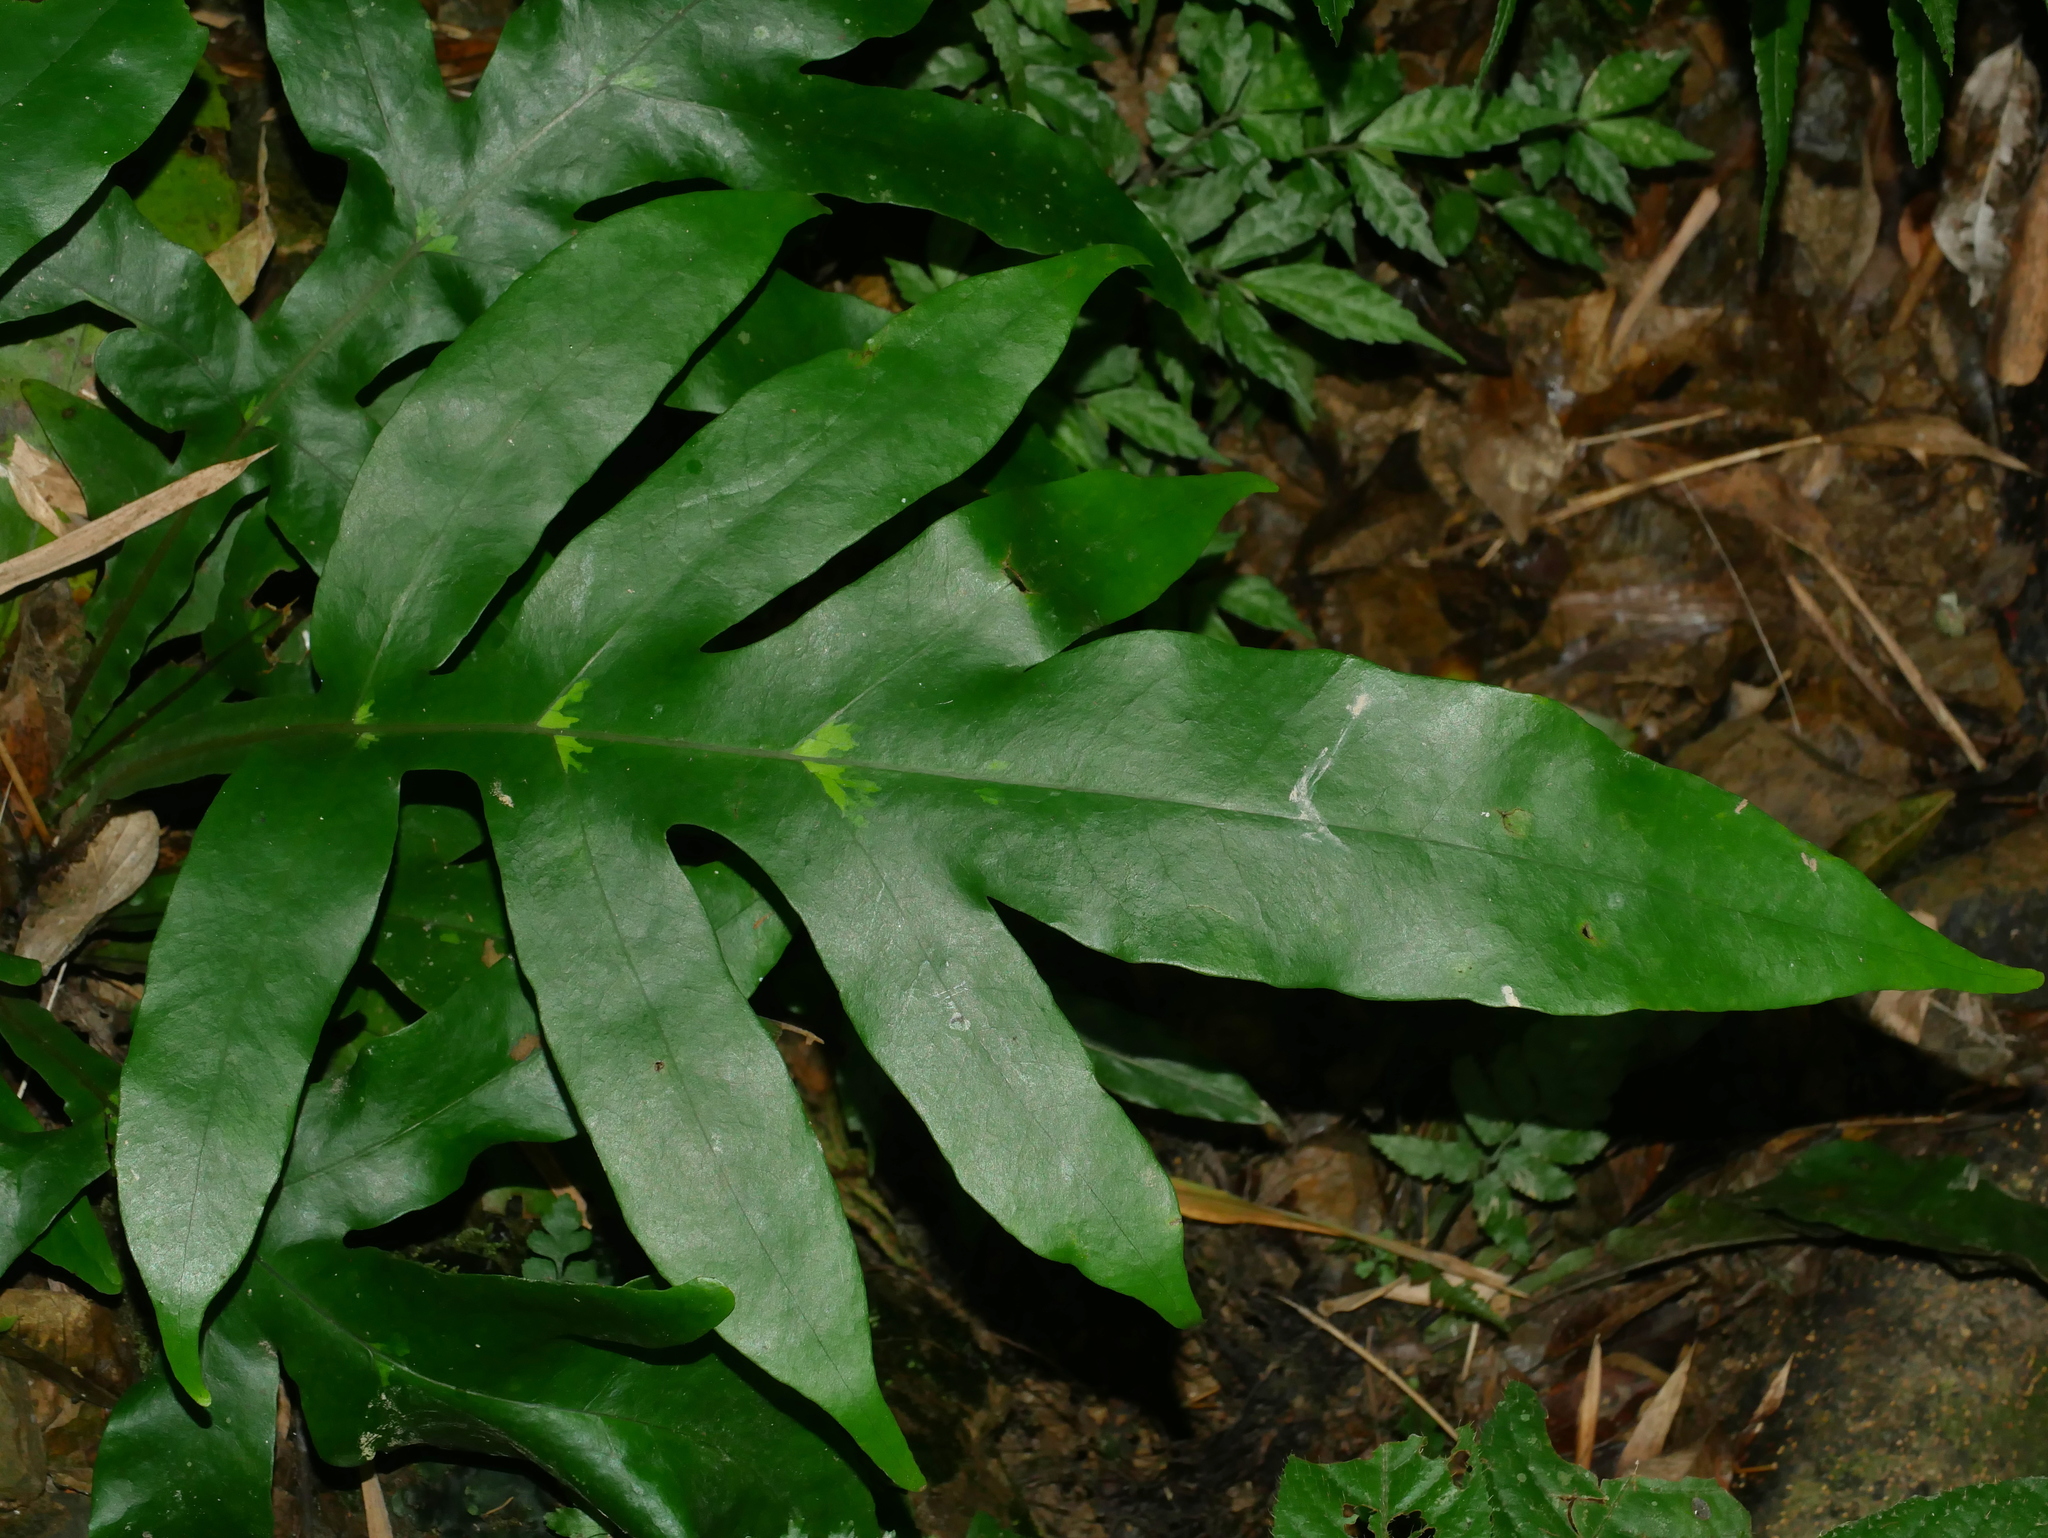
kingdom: Plantae
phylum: Tracheophyta
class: Polypodiopsida
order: Polypodiales
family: Tectariaceae
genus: Tectaria
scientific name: Tectaria decurrens
